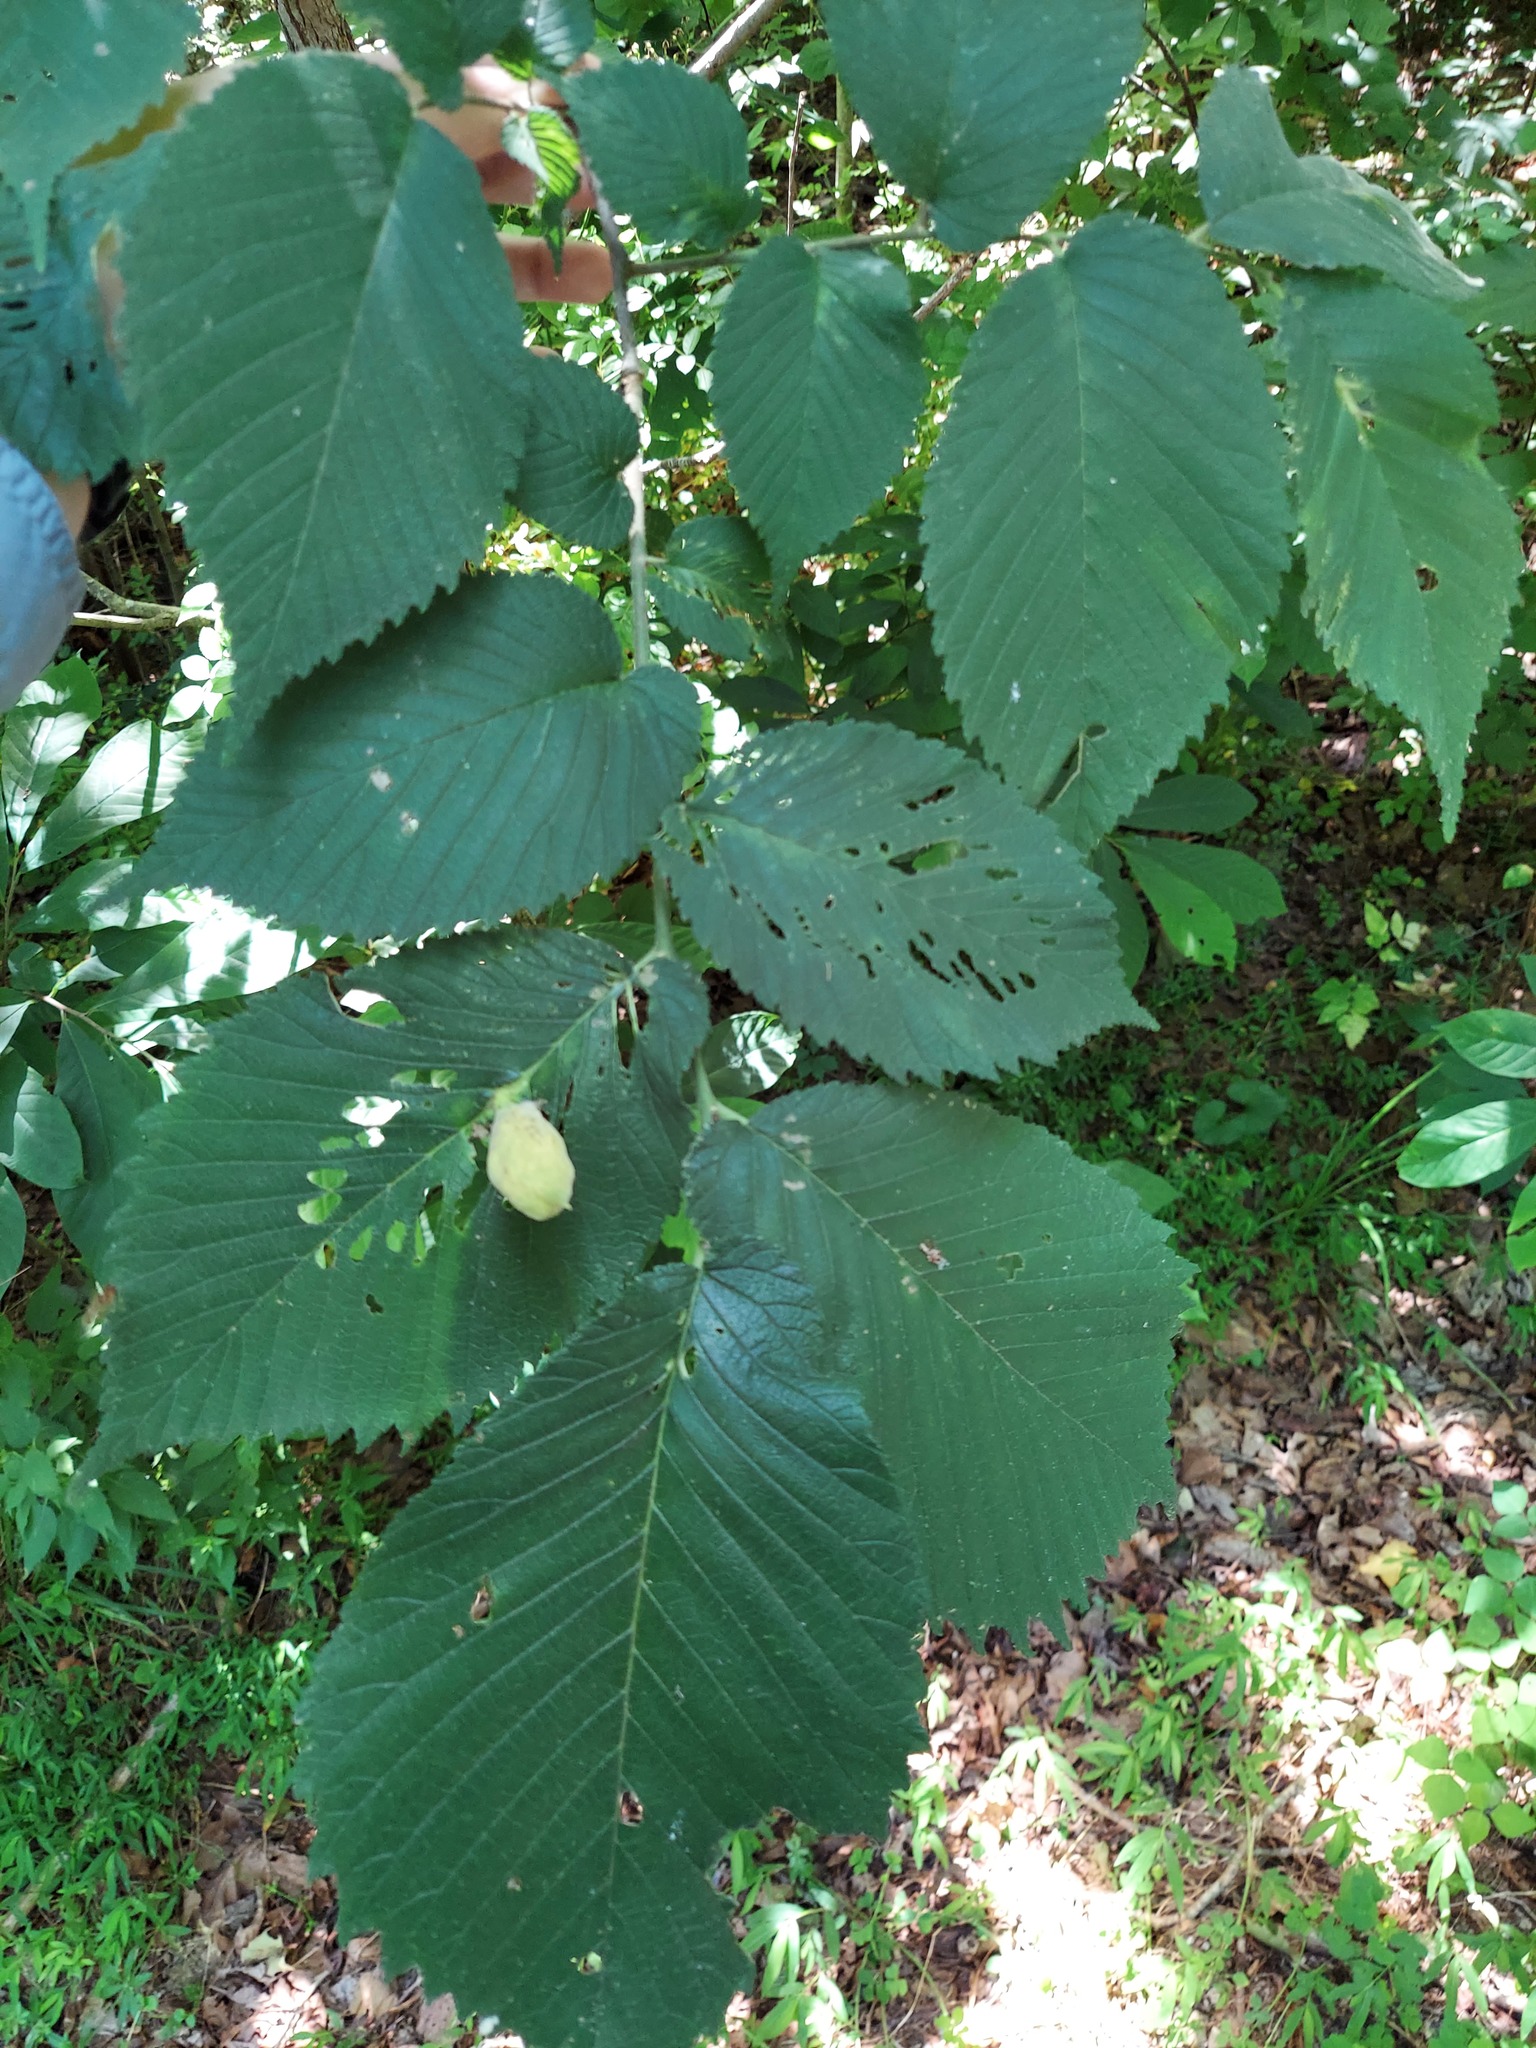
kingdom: Animalia
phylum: Arthropoda
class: Insecta
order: Hemiptera
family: Aphididae
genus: Kaltenbachiella
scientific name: Kaltenbachiella ulmifusa
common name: Elm pouchgall aphid
